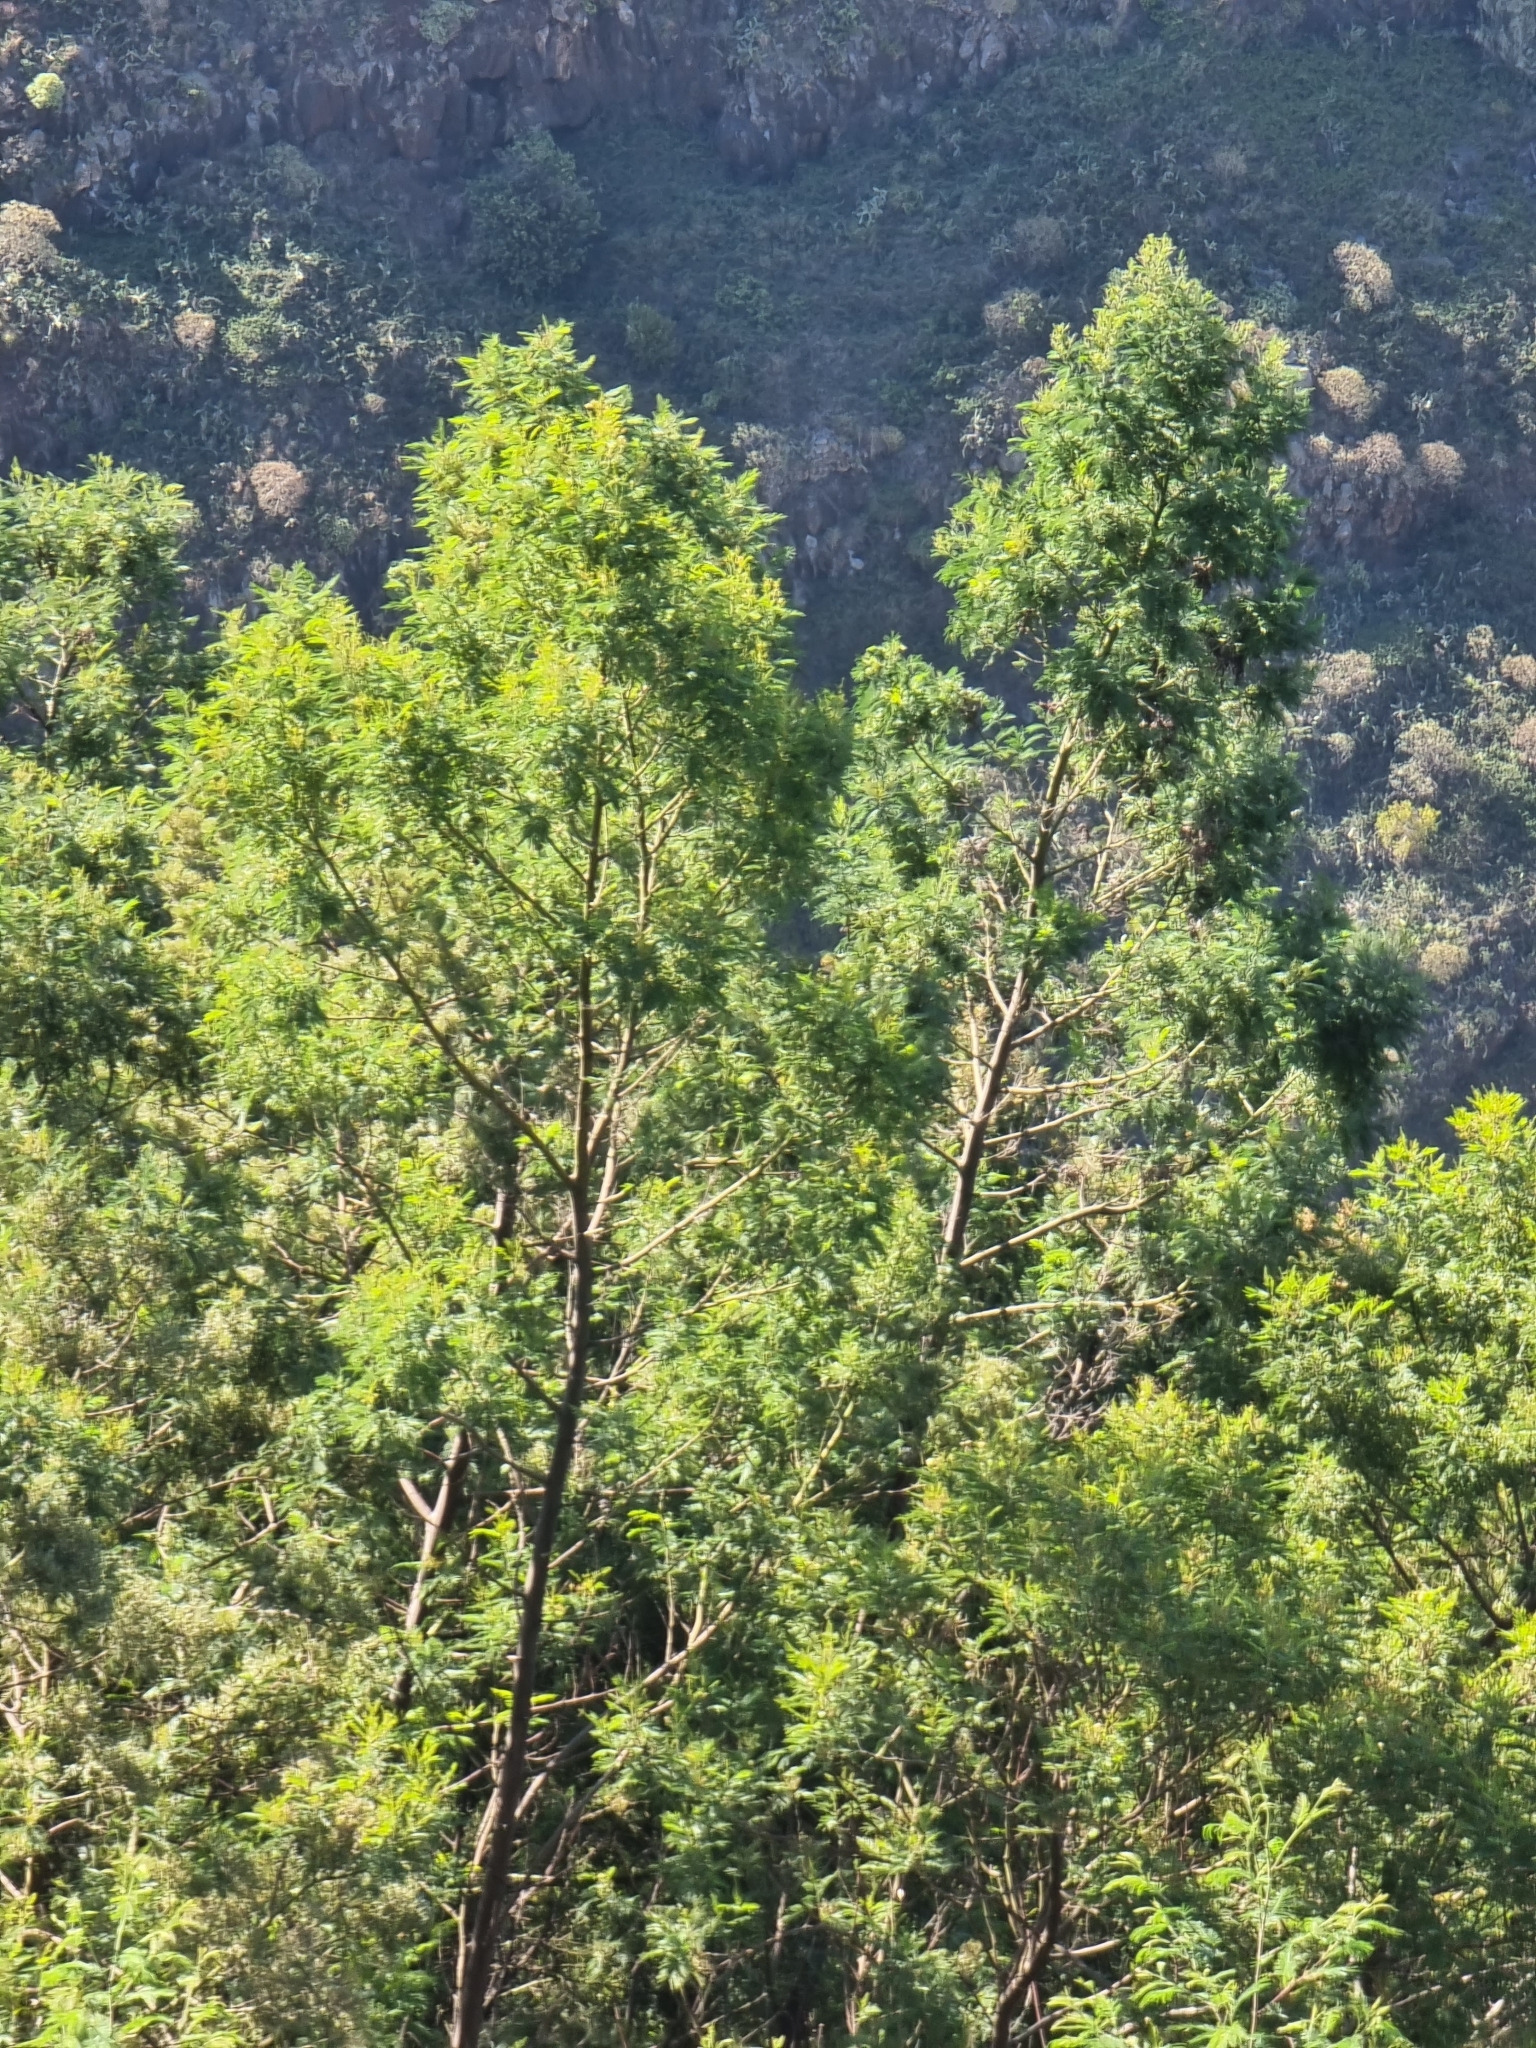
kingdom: Plantae
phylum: Tracheophyta
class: Magnoliopsida
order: Fabales
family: Fabaceae
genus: Acacia
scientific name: Acacia mearnsii
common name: Black wattle
